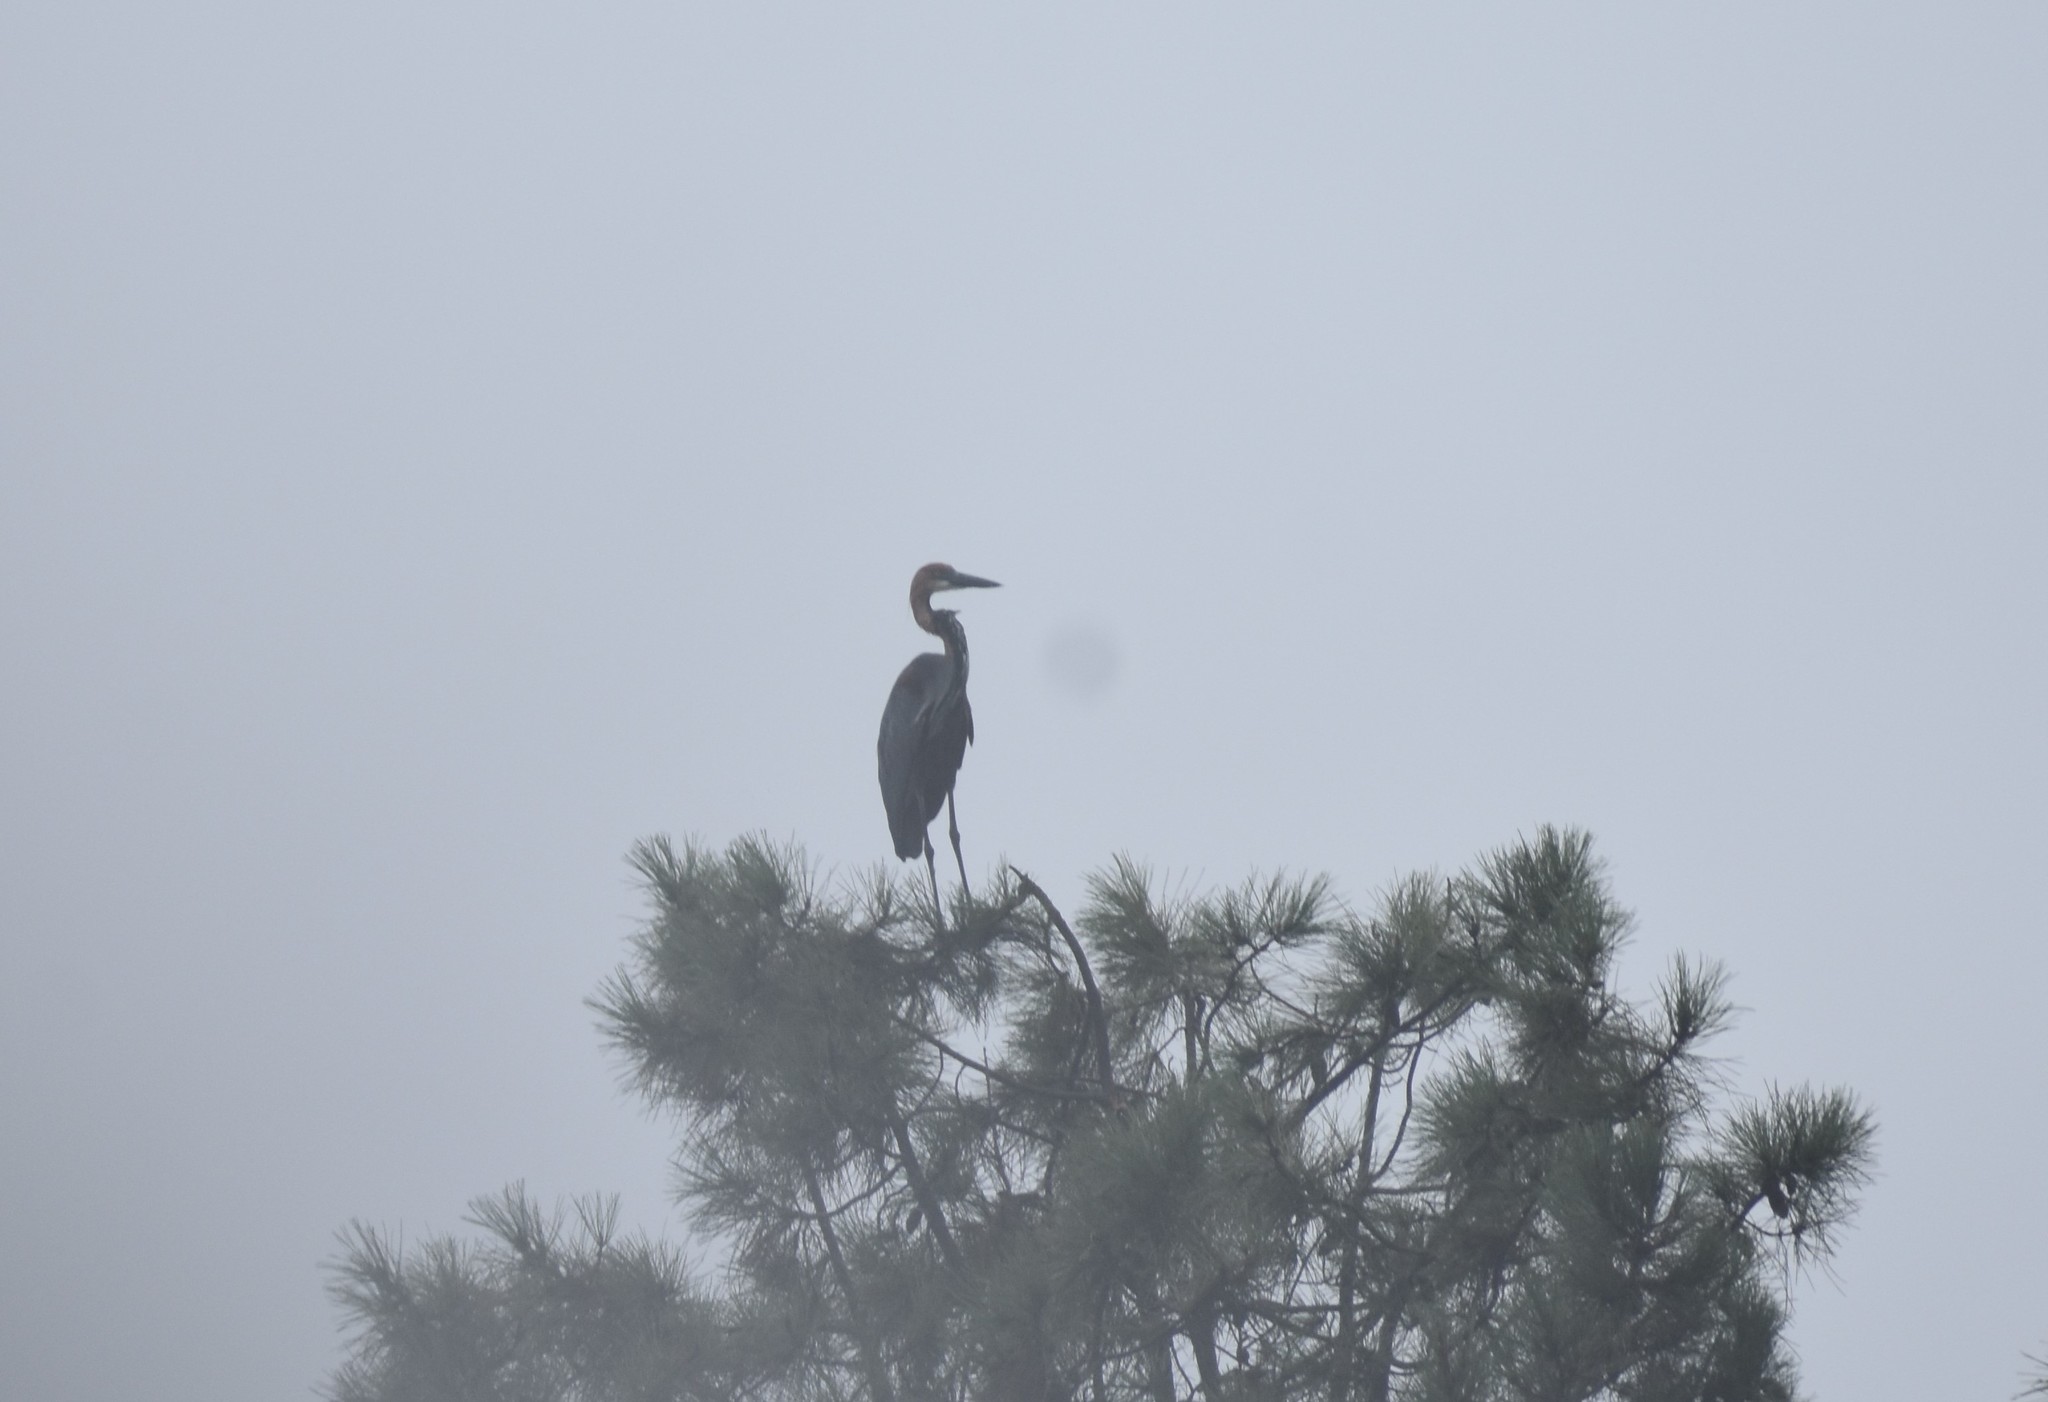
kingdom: Animalia
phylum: Chordata
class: Aves
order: Pelecaniformes
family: Ardeidae
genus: Ardea
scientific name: Ardea goliath
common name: Goliath heron
